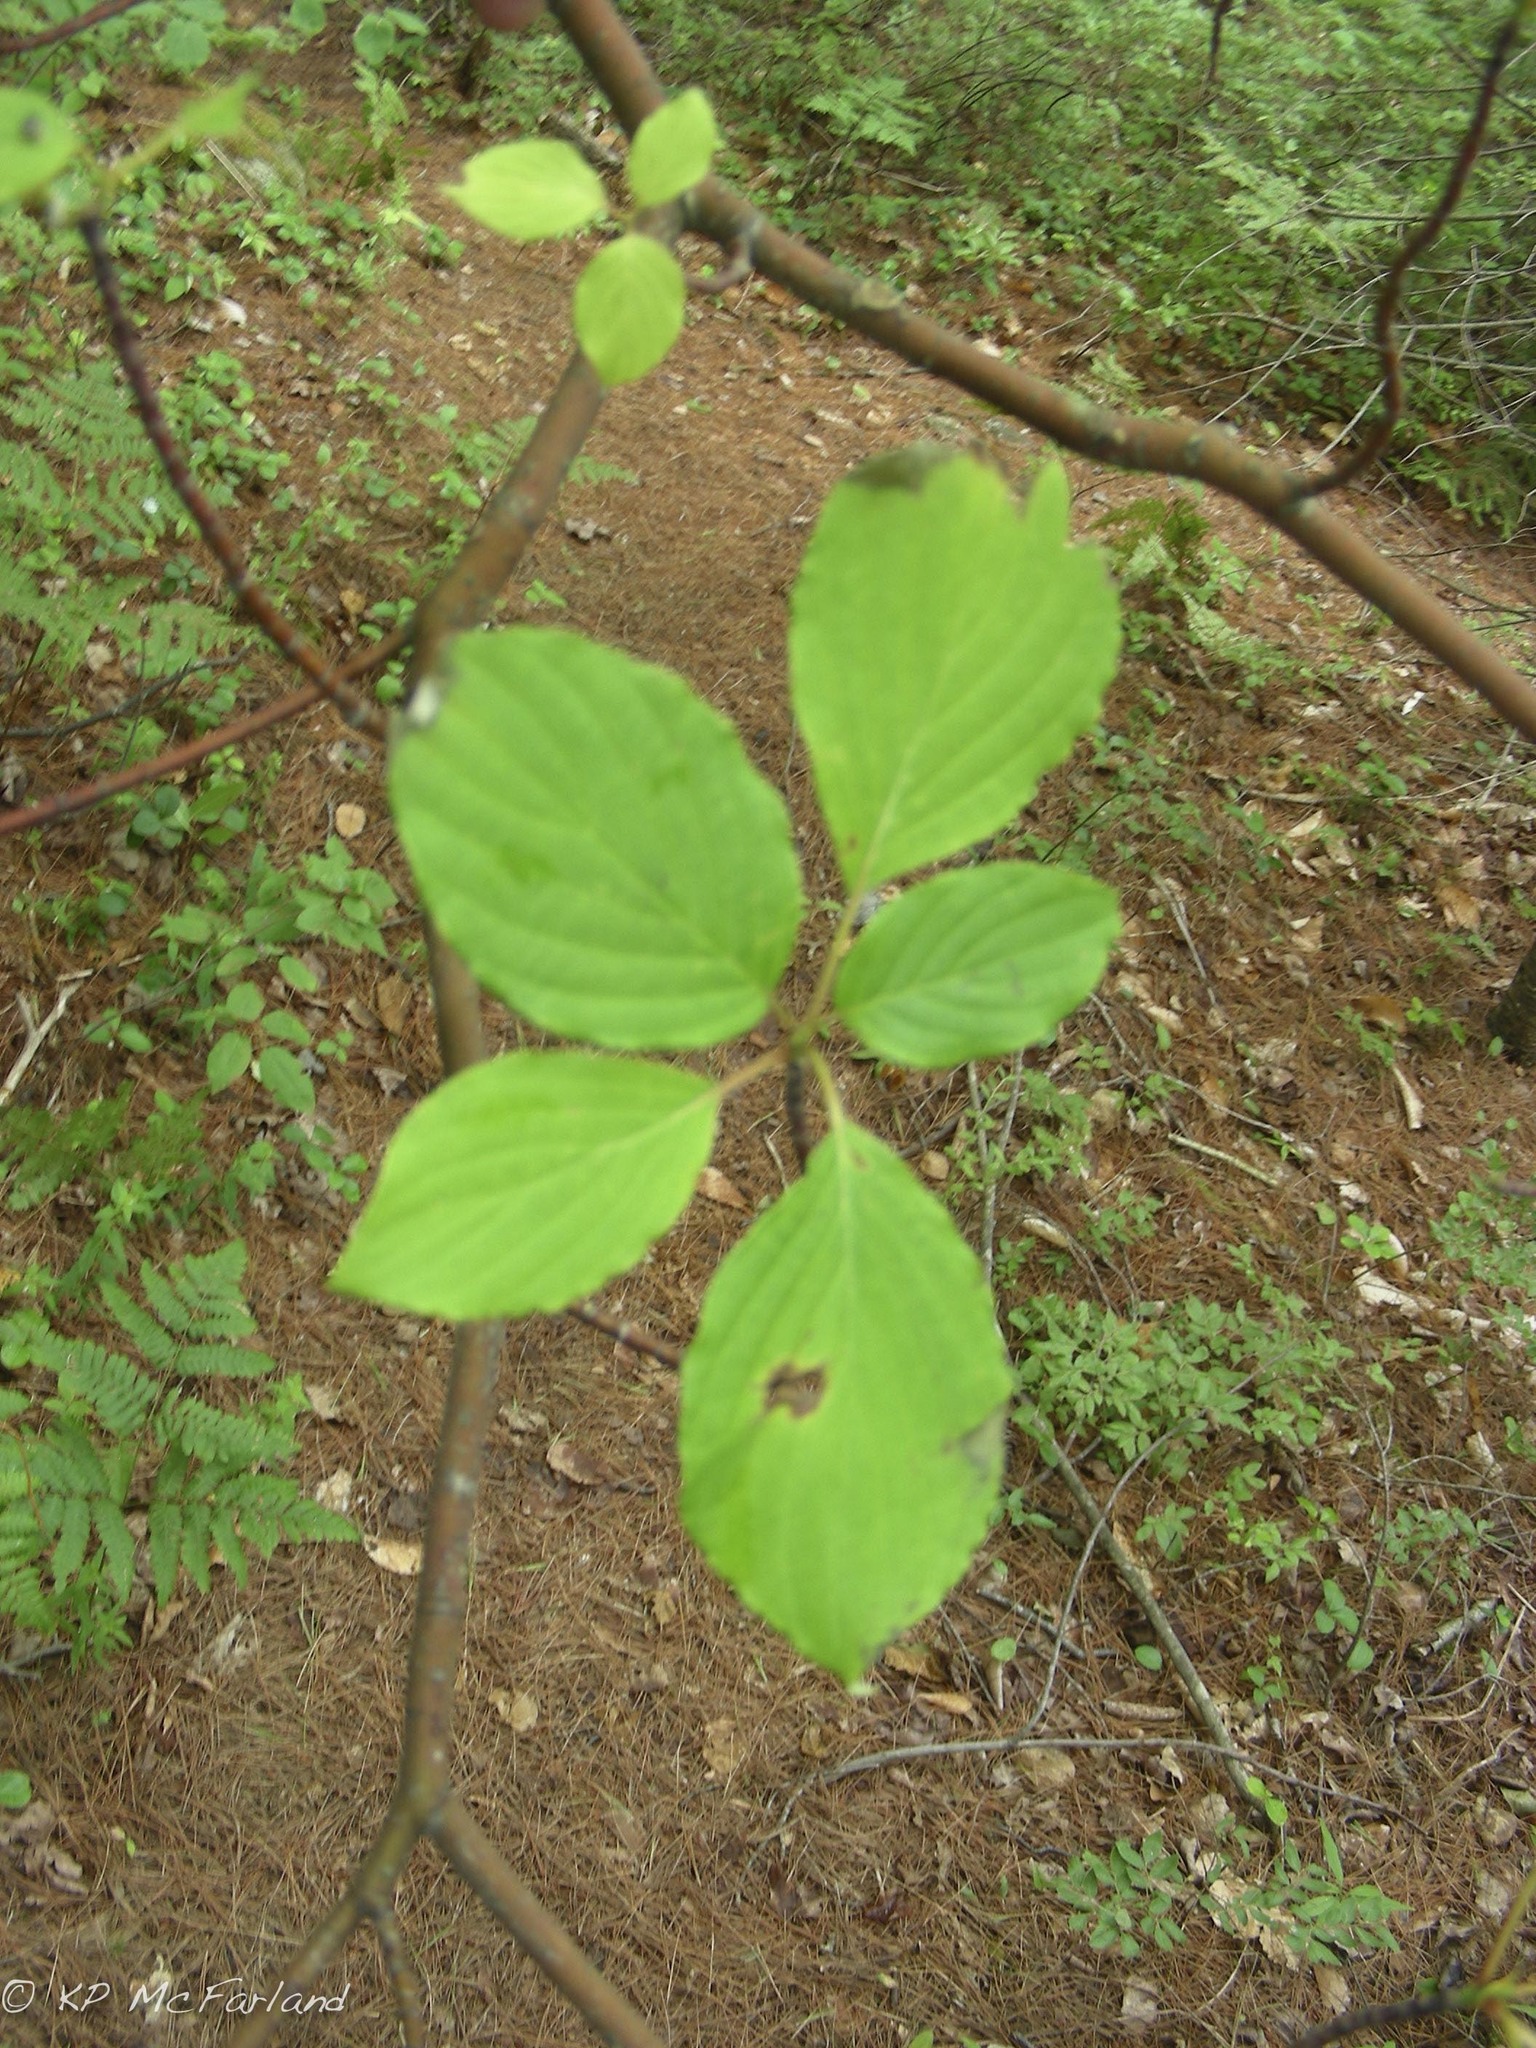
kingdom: Plantae
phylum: Tracheophyta
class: Magnoliopsida
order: Cornales
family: Cornaceae
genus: Cornus
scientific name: Cornus alternifolia
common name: Pagoda dogwood
